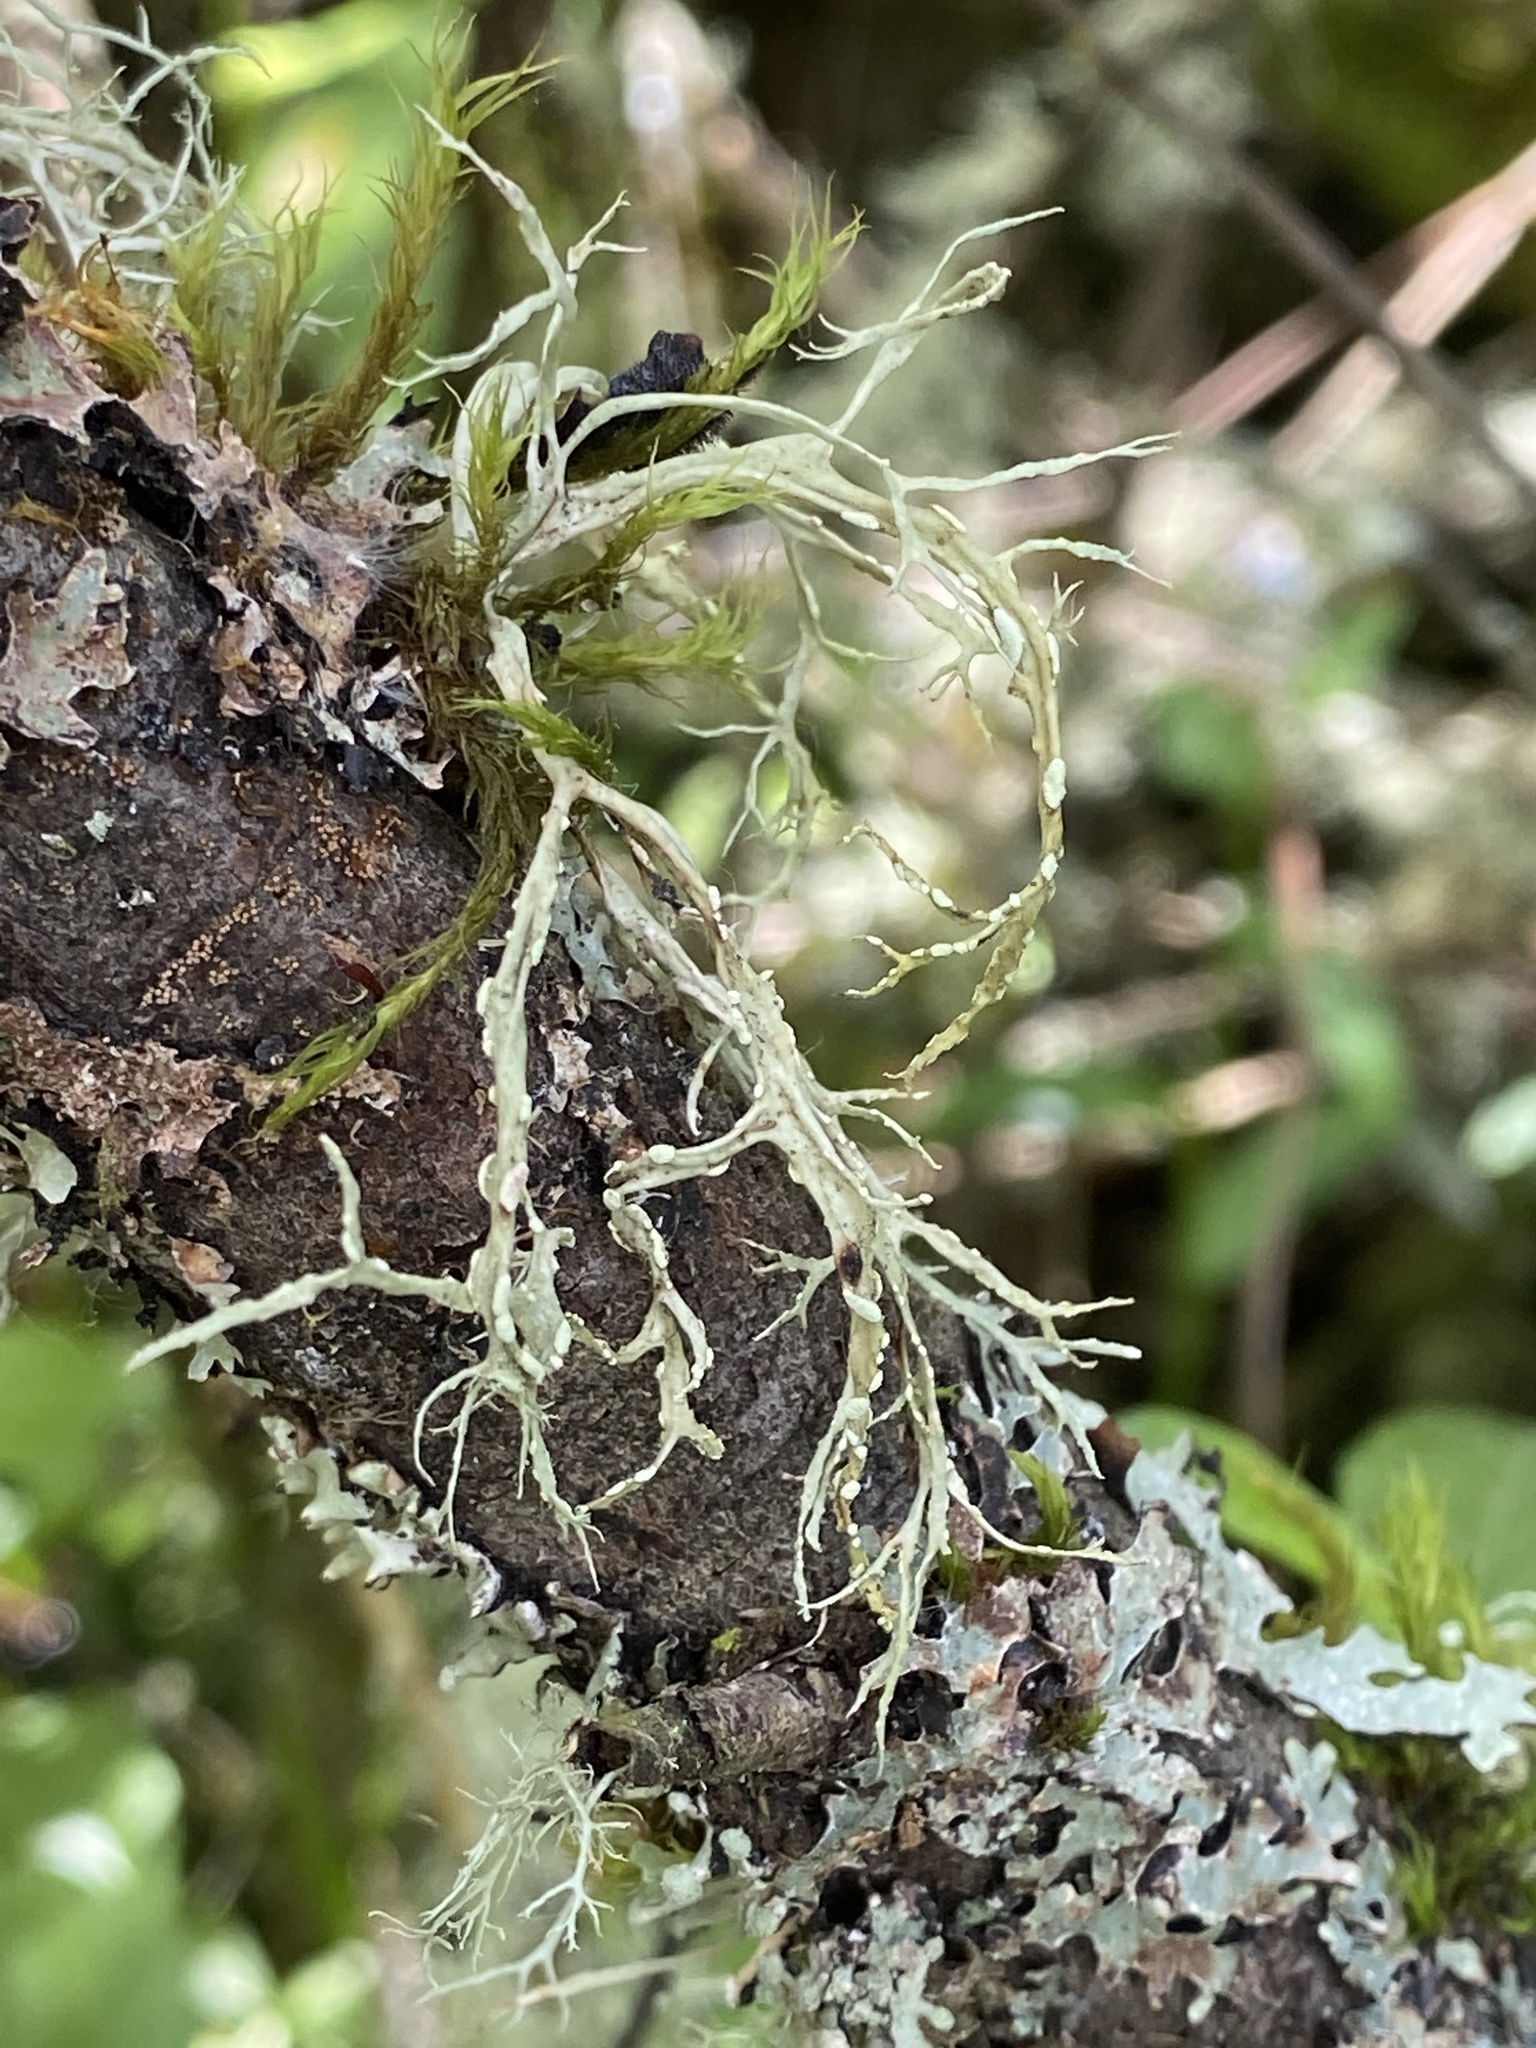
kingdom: Fungi
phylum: Ascomycota
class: Lecanoromycetes
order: Lecanorales
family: Ramalinaceae
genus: Ramalina
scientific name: Ramalina farinacea
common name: Farinose cartilage lichen
